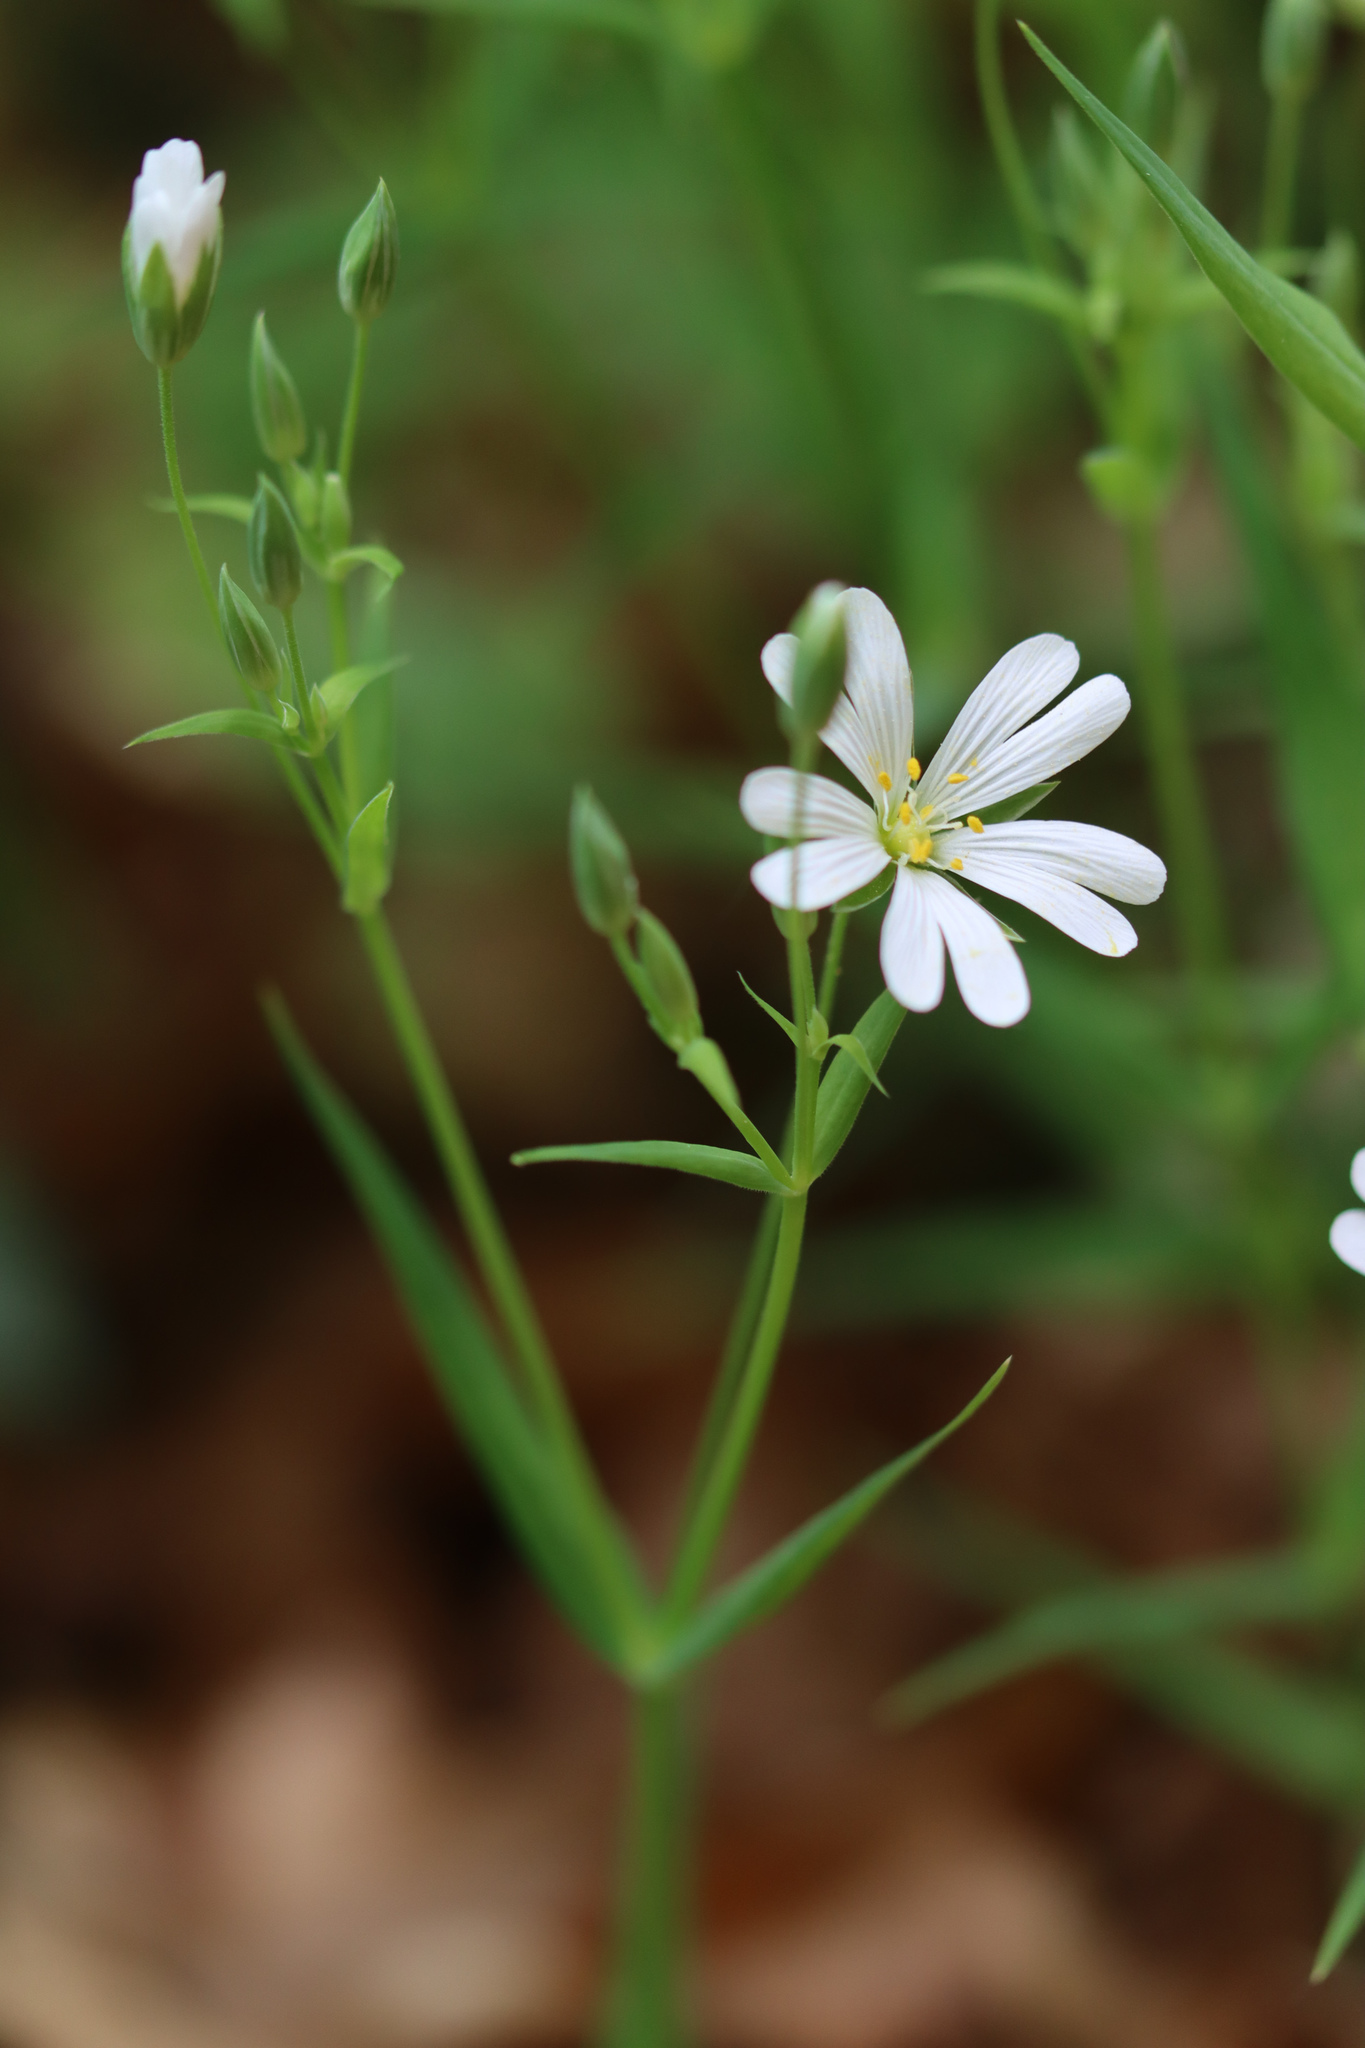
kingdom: Plantae
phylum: Tracheophyta
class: Magnoliopsida
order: Caryophyllales
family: Caryophyllaceae
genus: Rabelera
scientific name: Rabelera holostea
